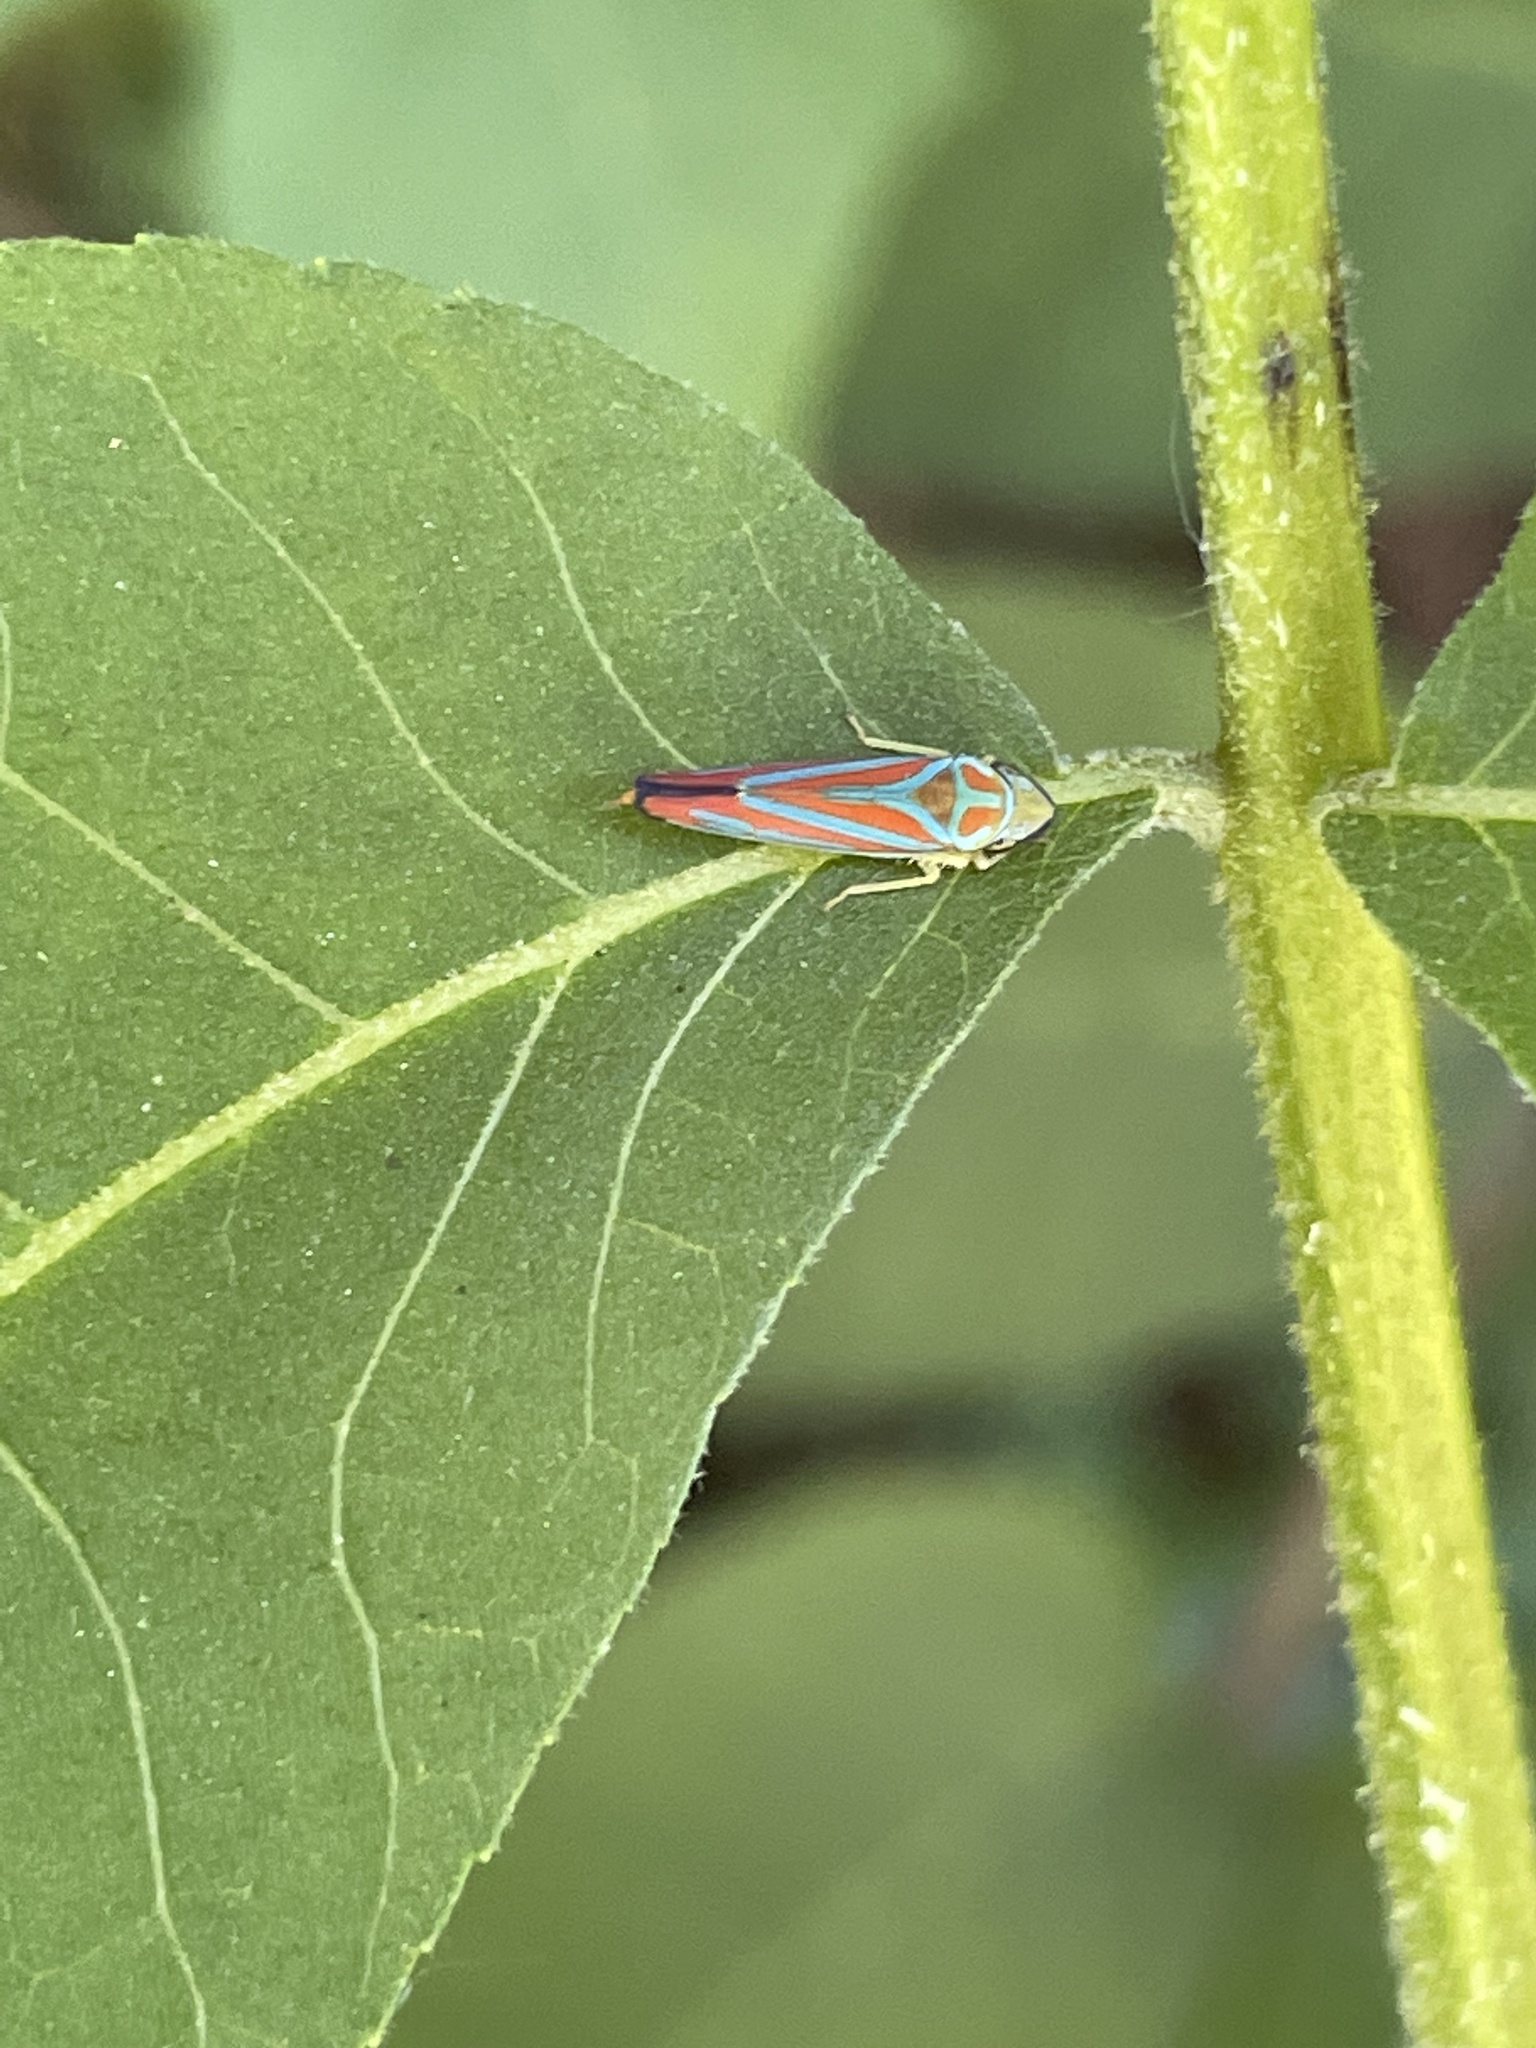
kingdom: Animalia
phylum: Arthropoda
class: Insecta
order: Hemiptera
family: Cicadellidae
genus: Graphocephala
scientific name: Graphocephala coccinea
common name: Candy-striped leafhopper
